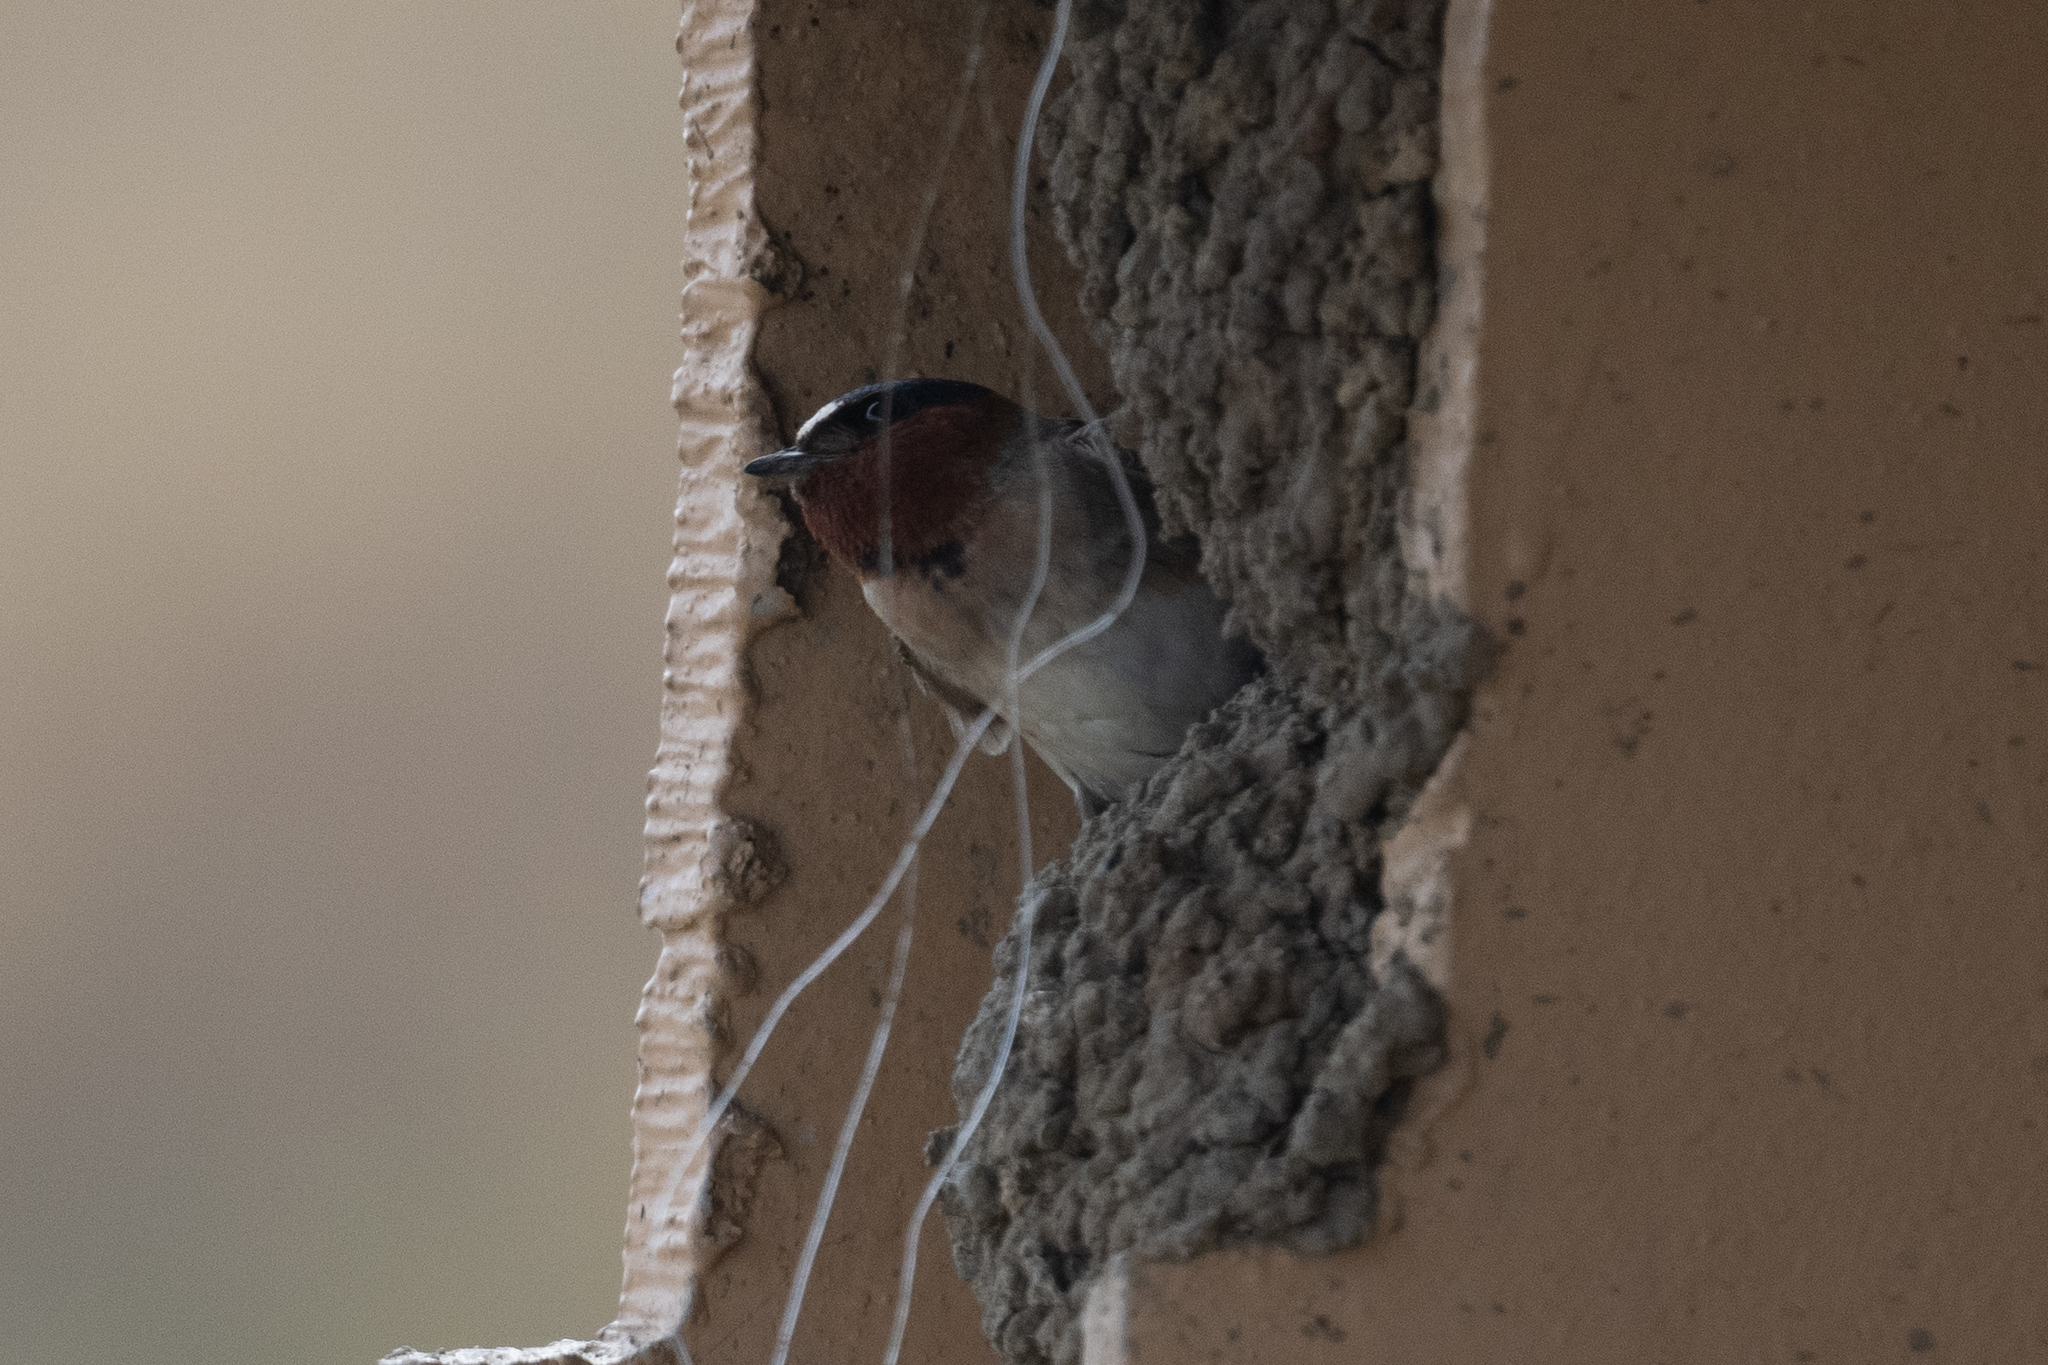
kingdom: Animalia
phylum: Chordata
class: Aves
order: Passeriformes
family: Hirundinidae
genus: Petrochelidon
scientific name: Petrochelidon pyrrhonota
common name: American cliff swallow
